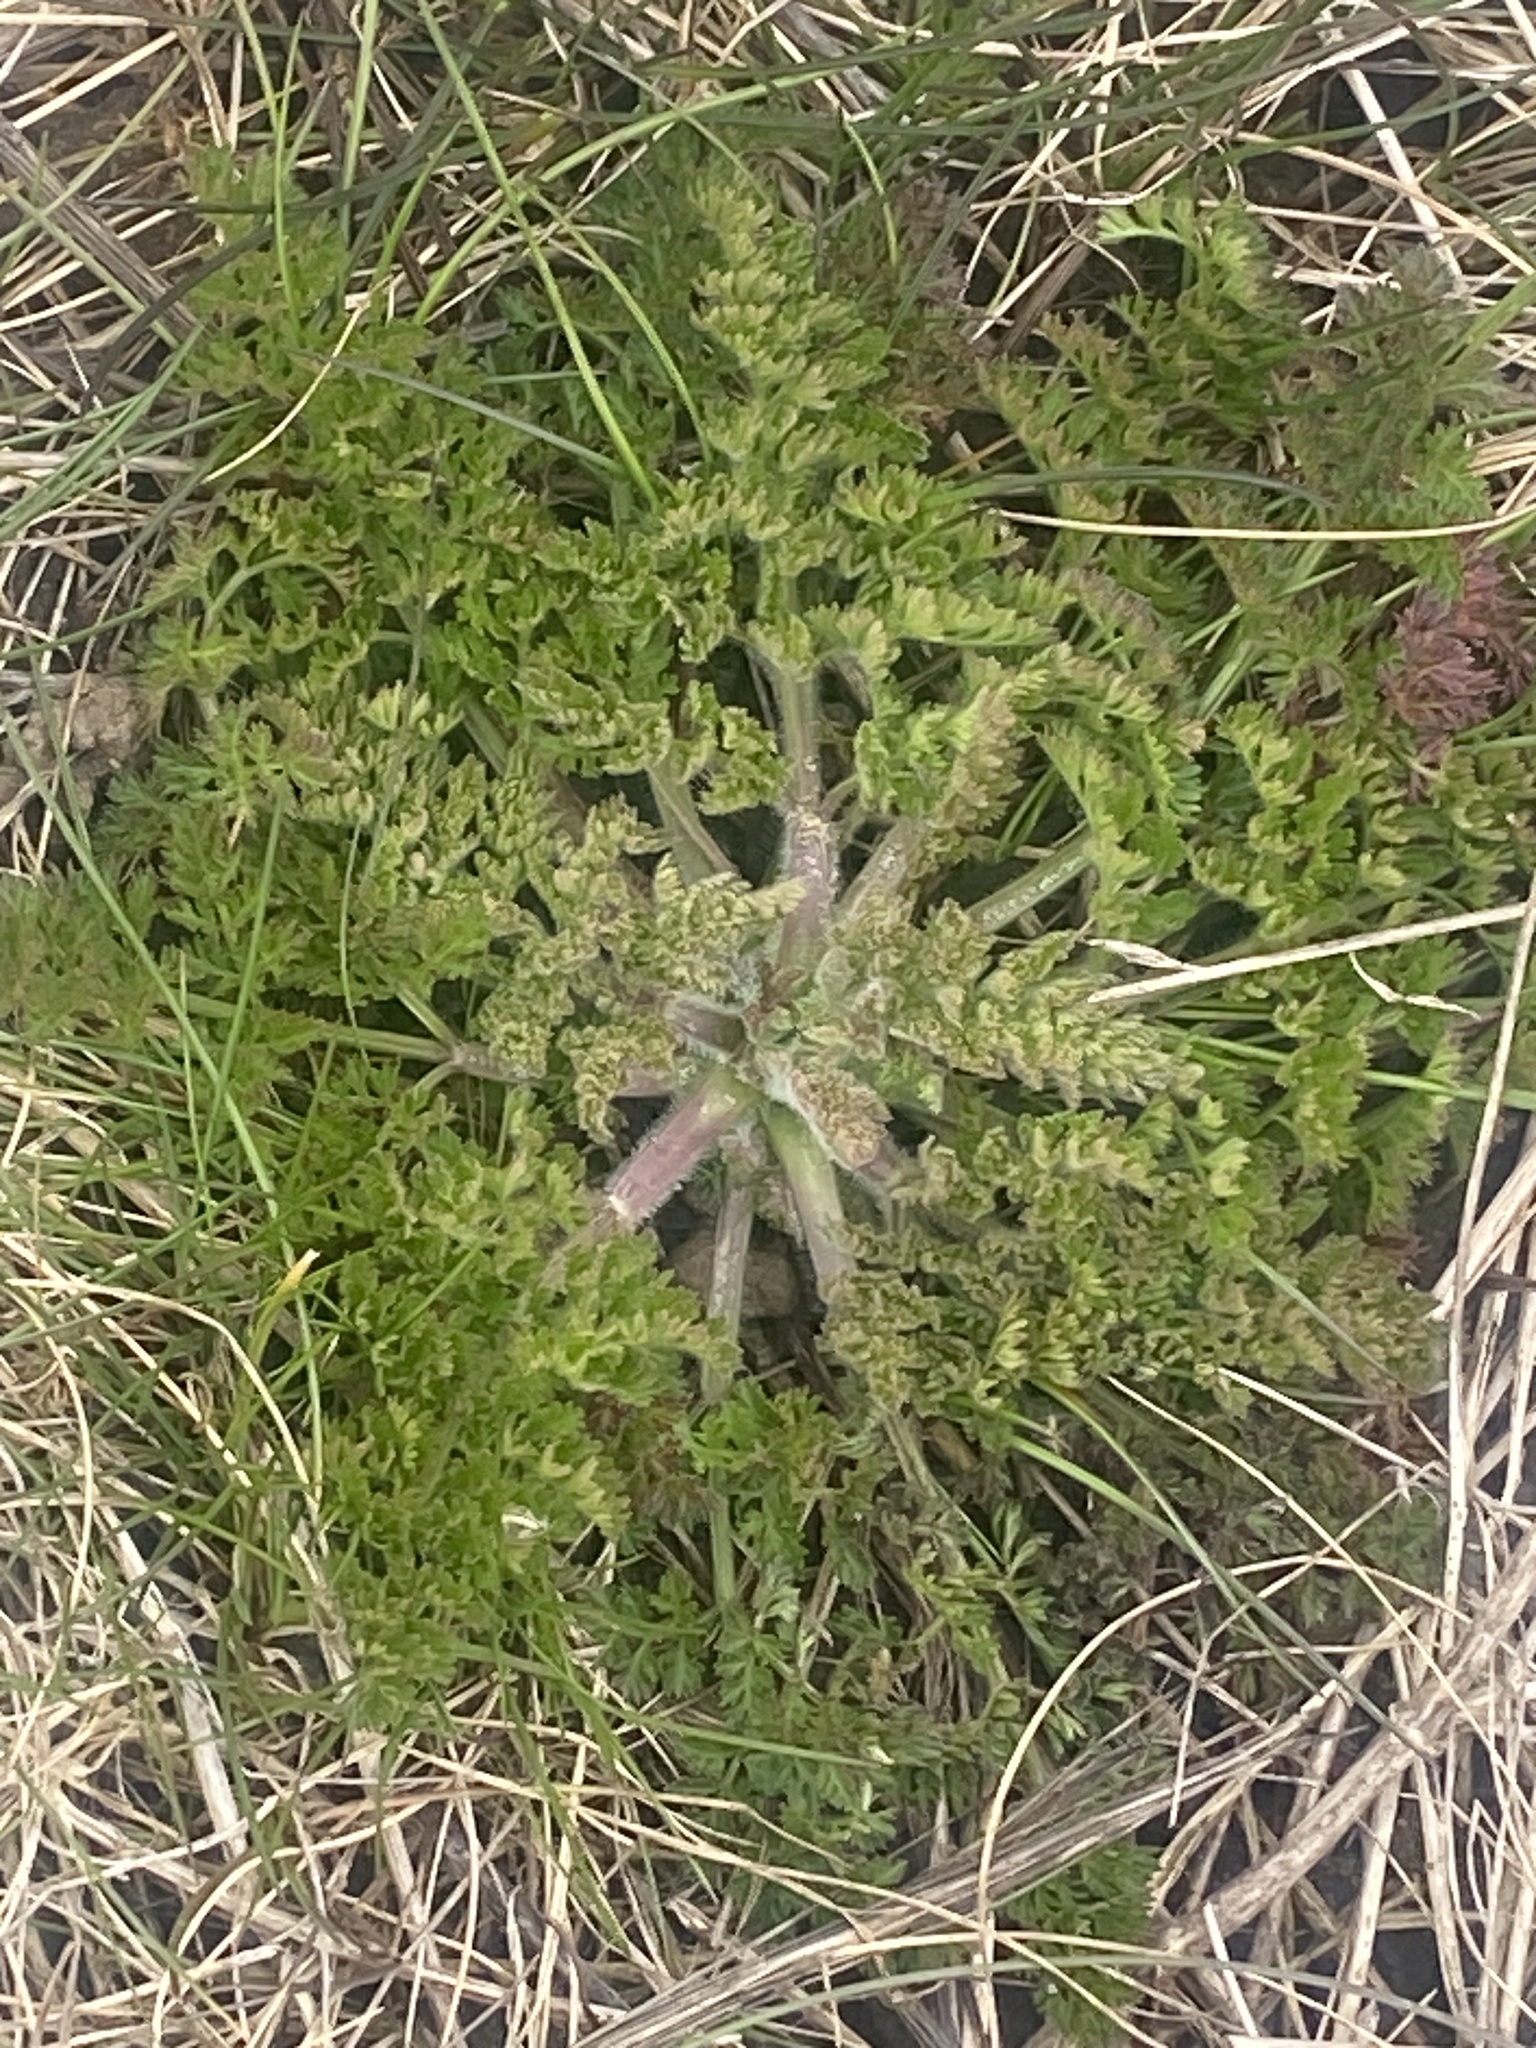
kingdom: Plantae
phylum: Tracheophyta
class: Magnoliopsida
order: Apiales
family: Apiaceae
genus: Daucus
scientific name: Daucus carota
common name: Wild carrot
